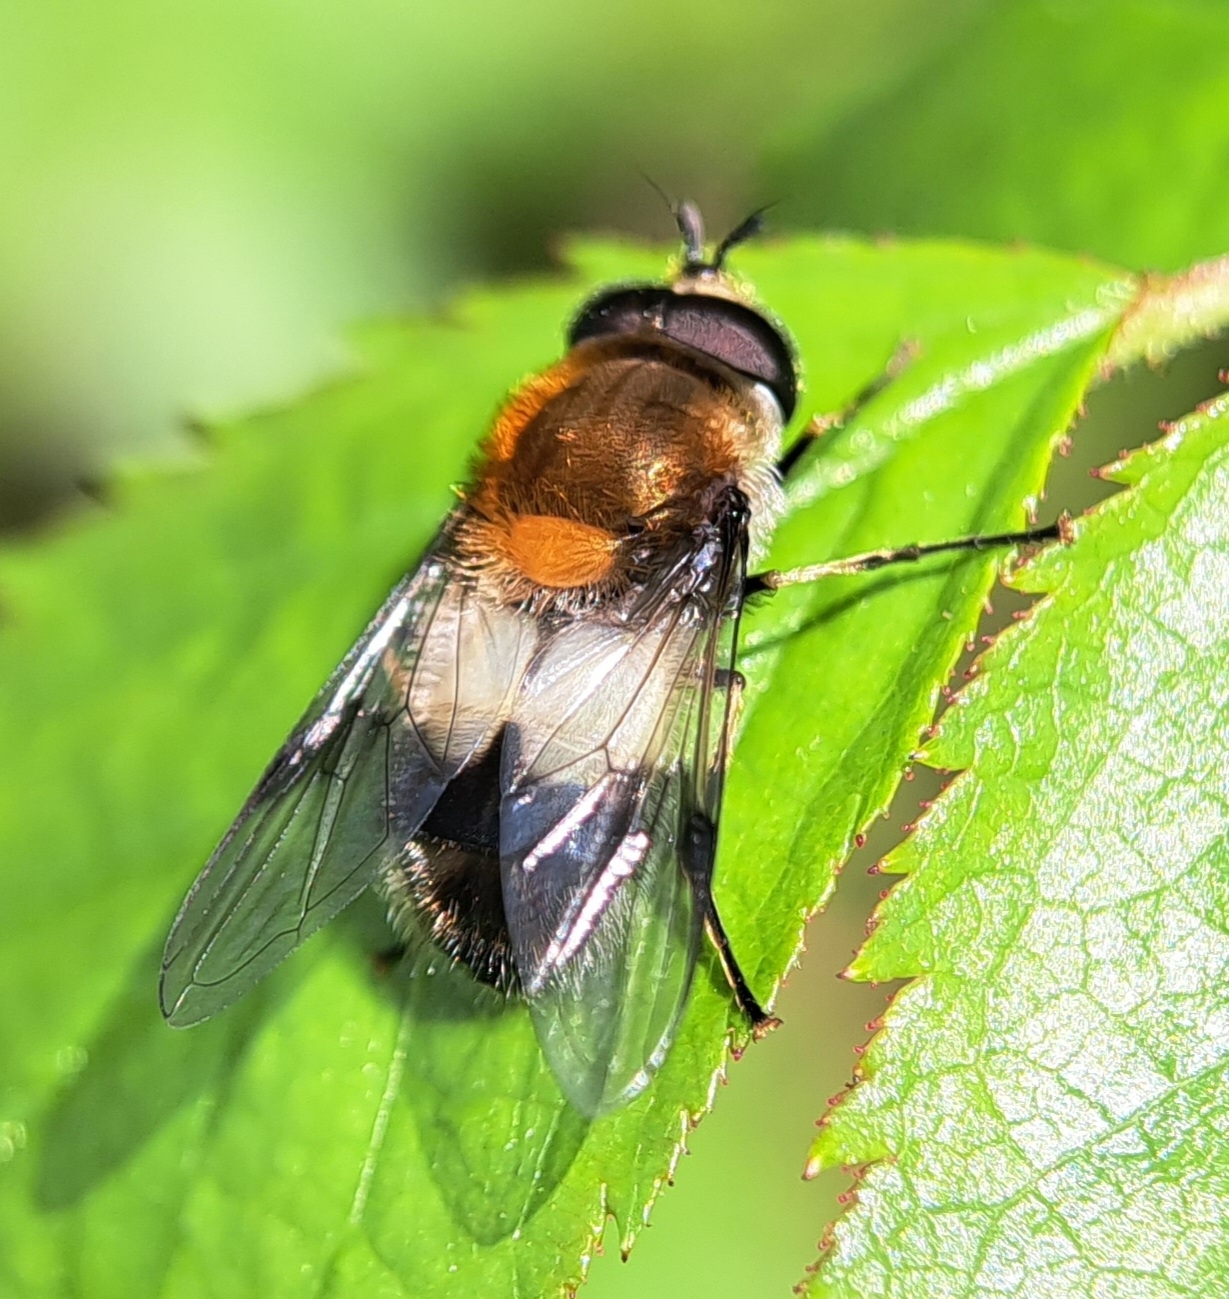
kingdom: Animalia
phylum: Arthropoda
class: Insecta
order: Diptera
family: Syrphidae
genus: Leucozona
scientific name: Leucozona lucorum
